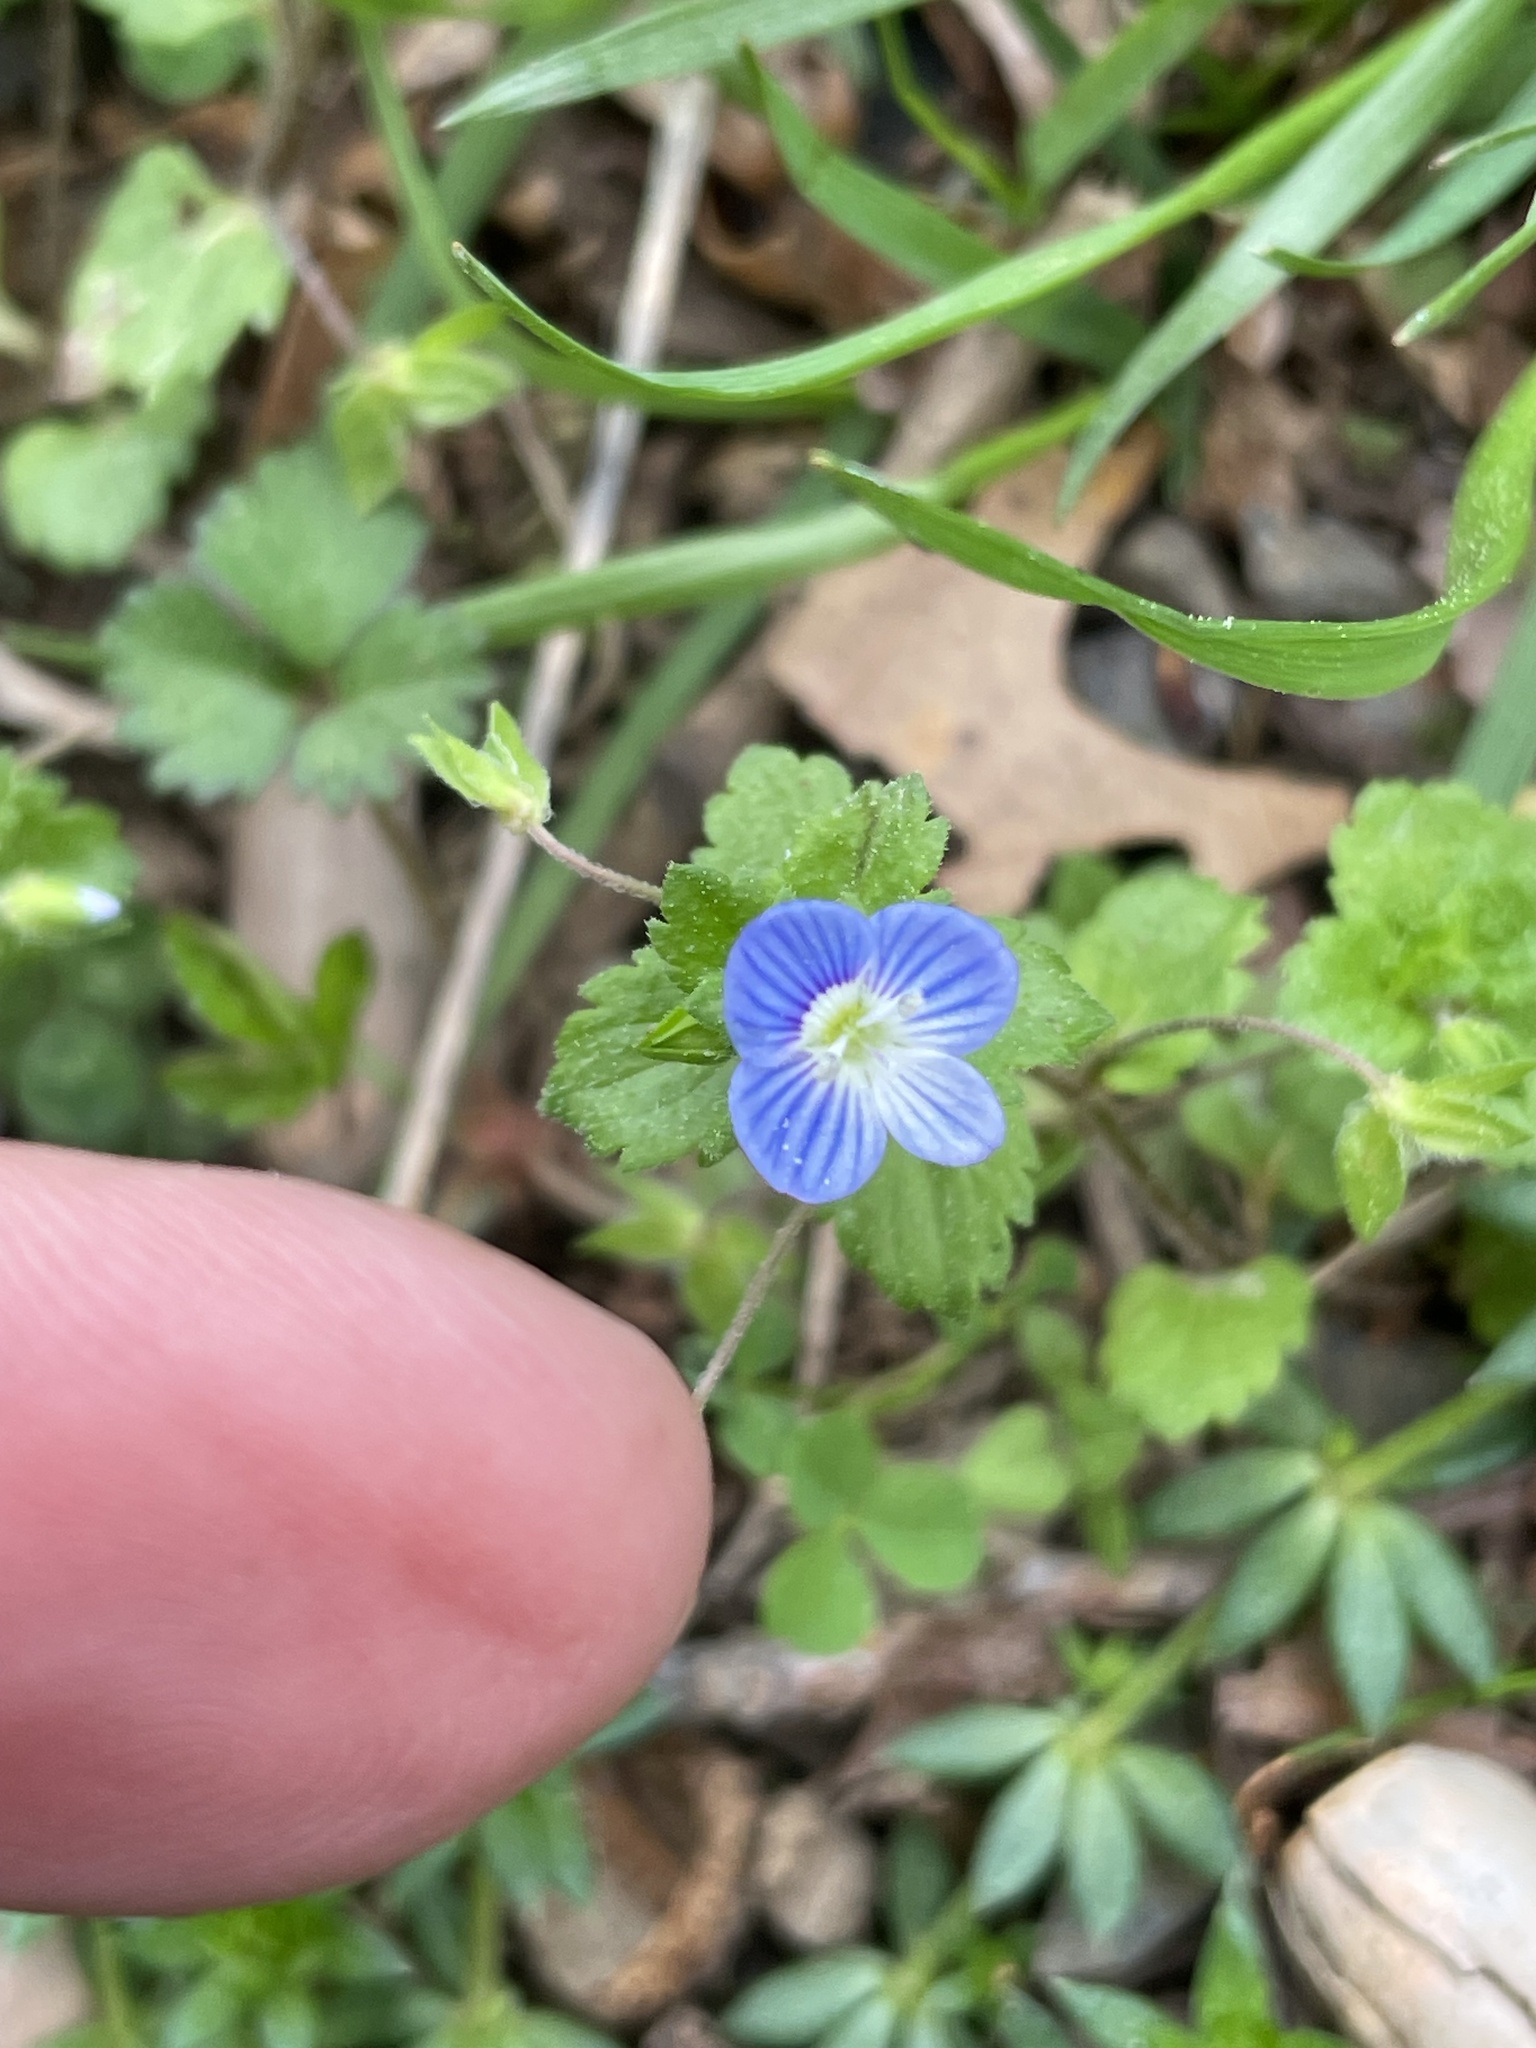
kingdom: Plantae
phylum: Tracheophyta
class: Magnoliopsida
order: Lamiales
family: Plantaginaceae
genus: Veronica
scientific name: Veronica persica
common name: Common field-speedwell
